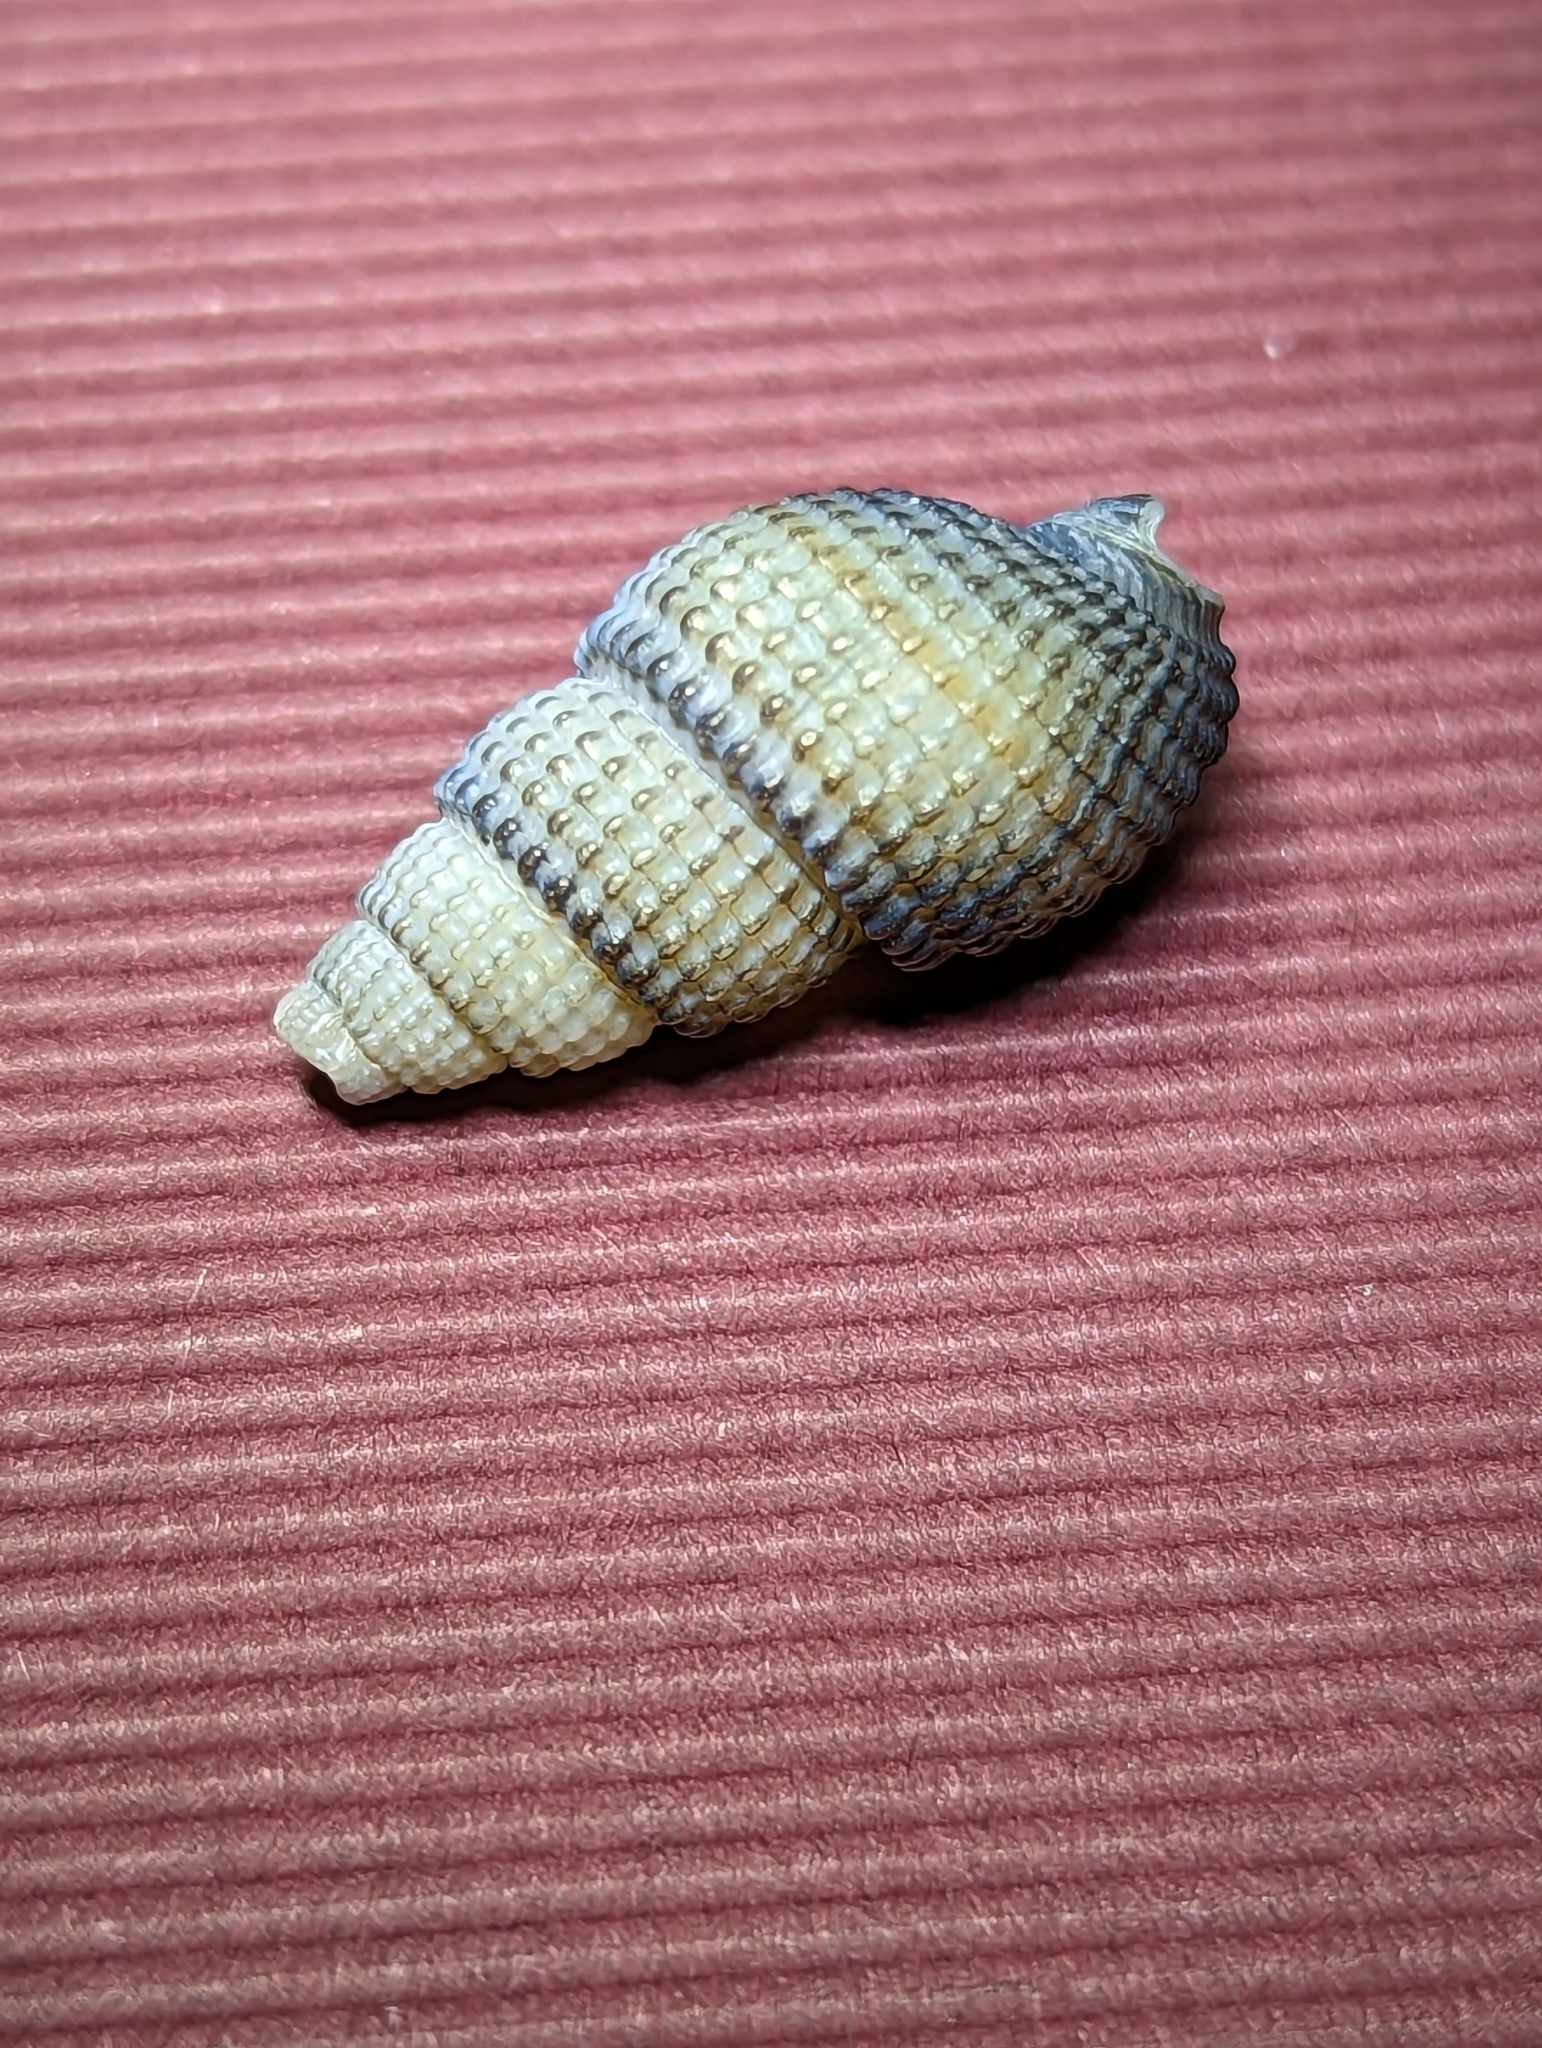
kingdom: Animalia
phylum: Mollusca
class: Gastropoda
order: Neogastropoda
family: Nassariidae
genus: Ilyanassa
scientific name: Ilyanassa trivittata
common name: Three-line mudsnail
